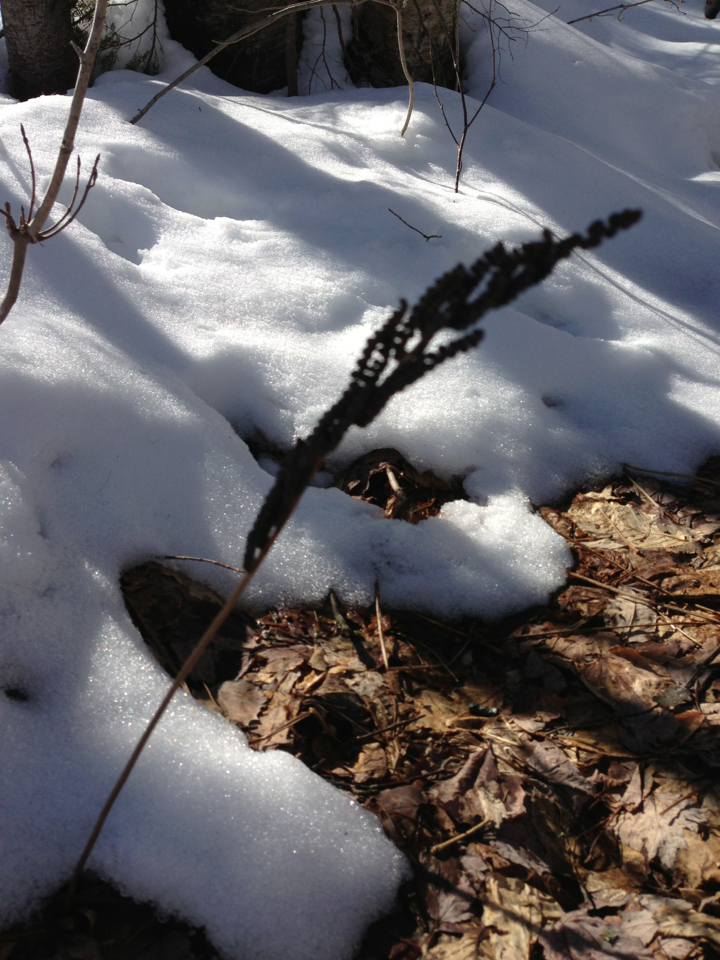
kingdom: Plantae
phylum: Tracheophyta
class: Polypodiopsida
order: Polypodiales
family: Onocleaceae
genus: Onoclea
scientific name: Onoclea sensibilis
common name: Sensitive fern
